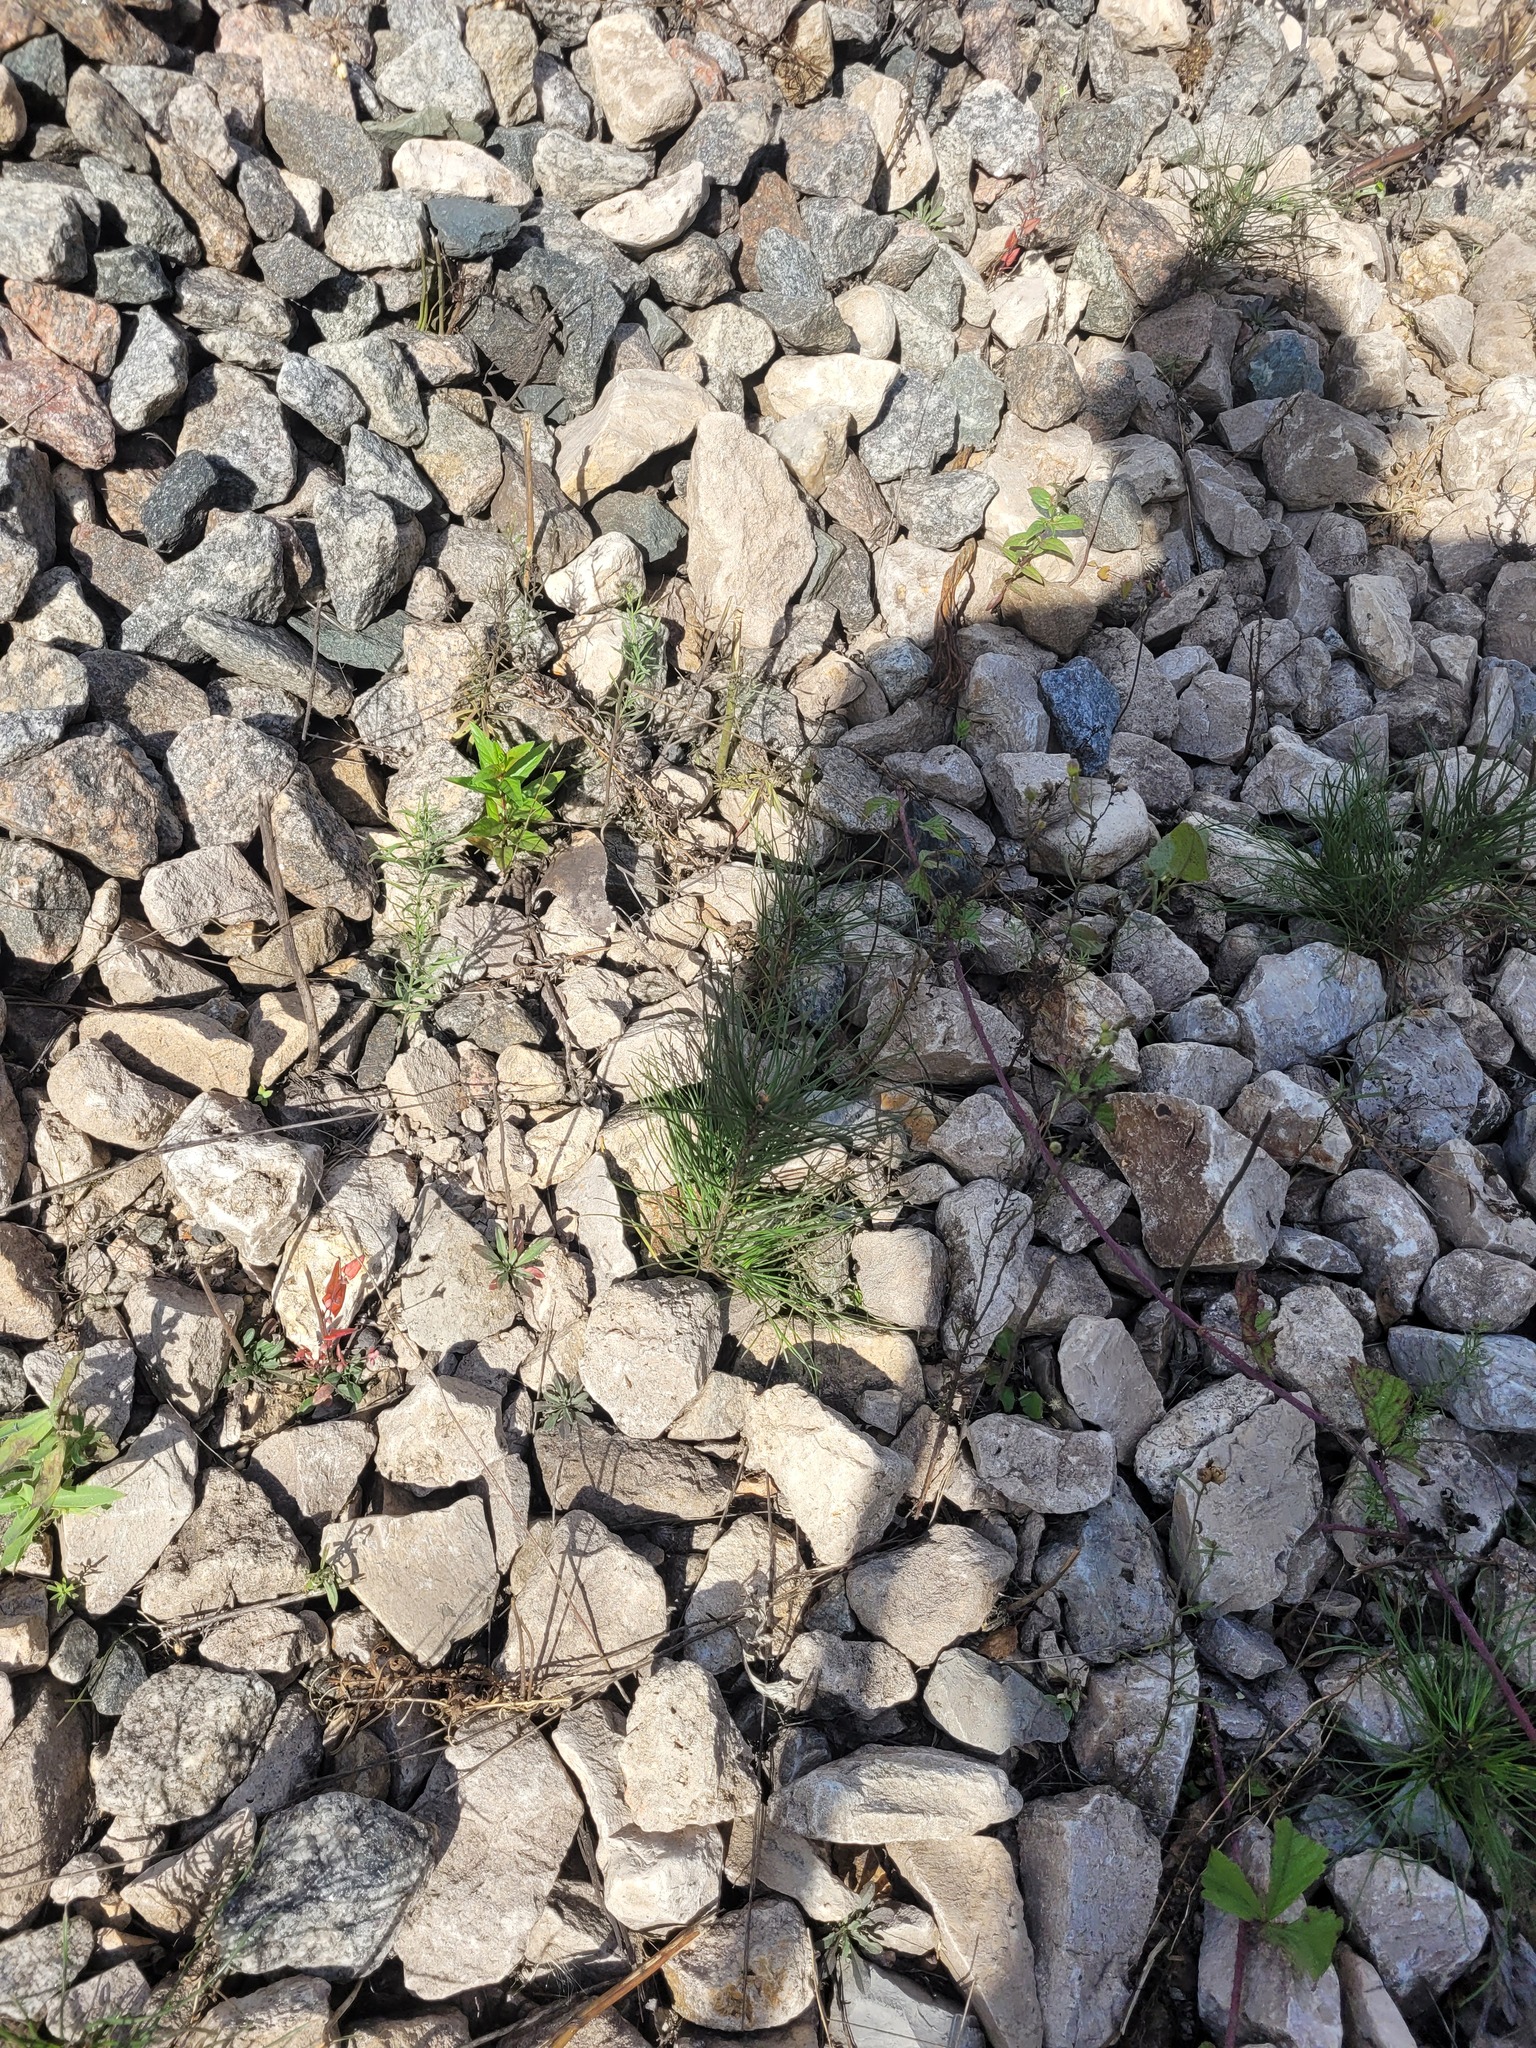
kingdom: Plantae
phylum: Tracheophyta
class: Pinopsida
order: Pinales
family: Pinaceae
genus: Pinus
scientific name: Pinus sylvestris
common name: Scots pine
